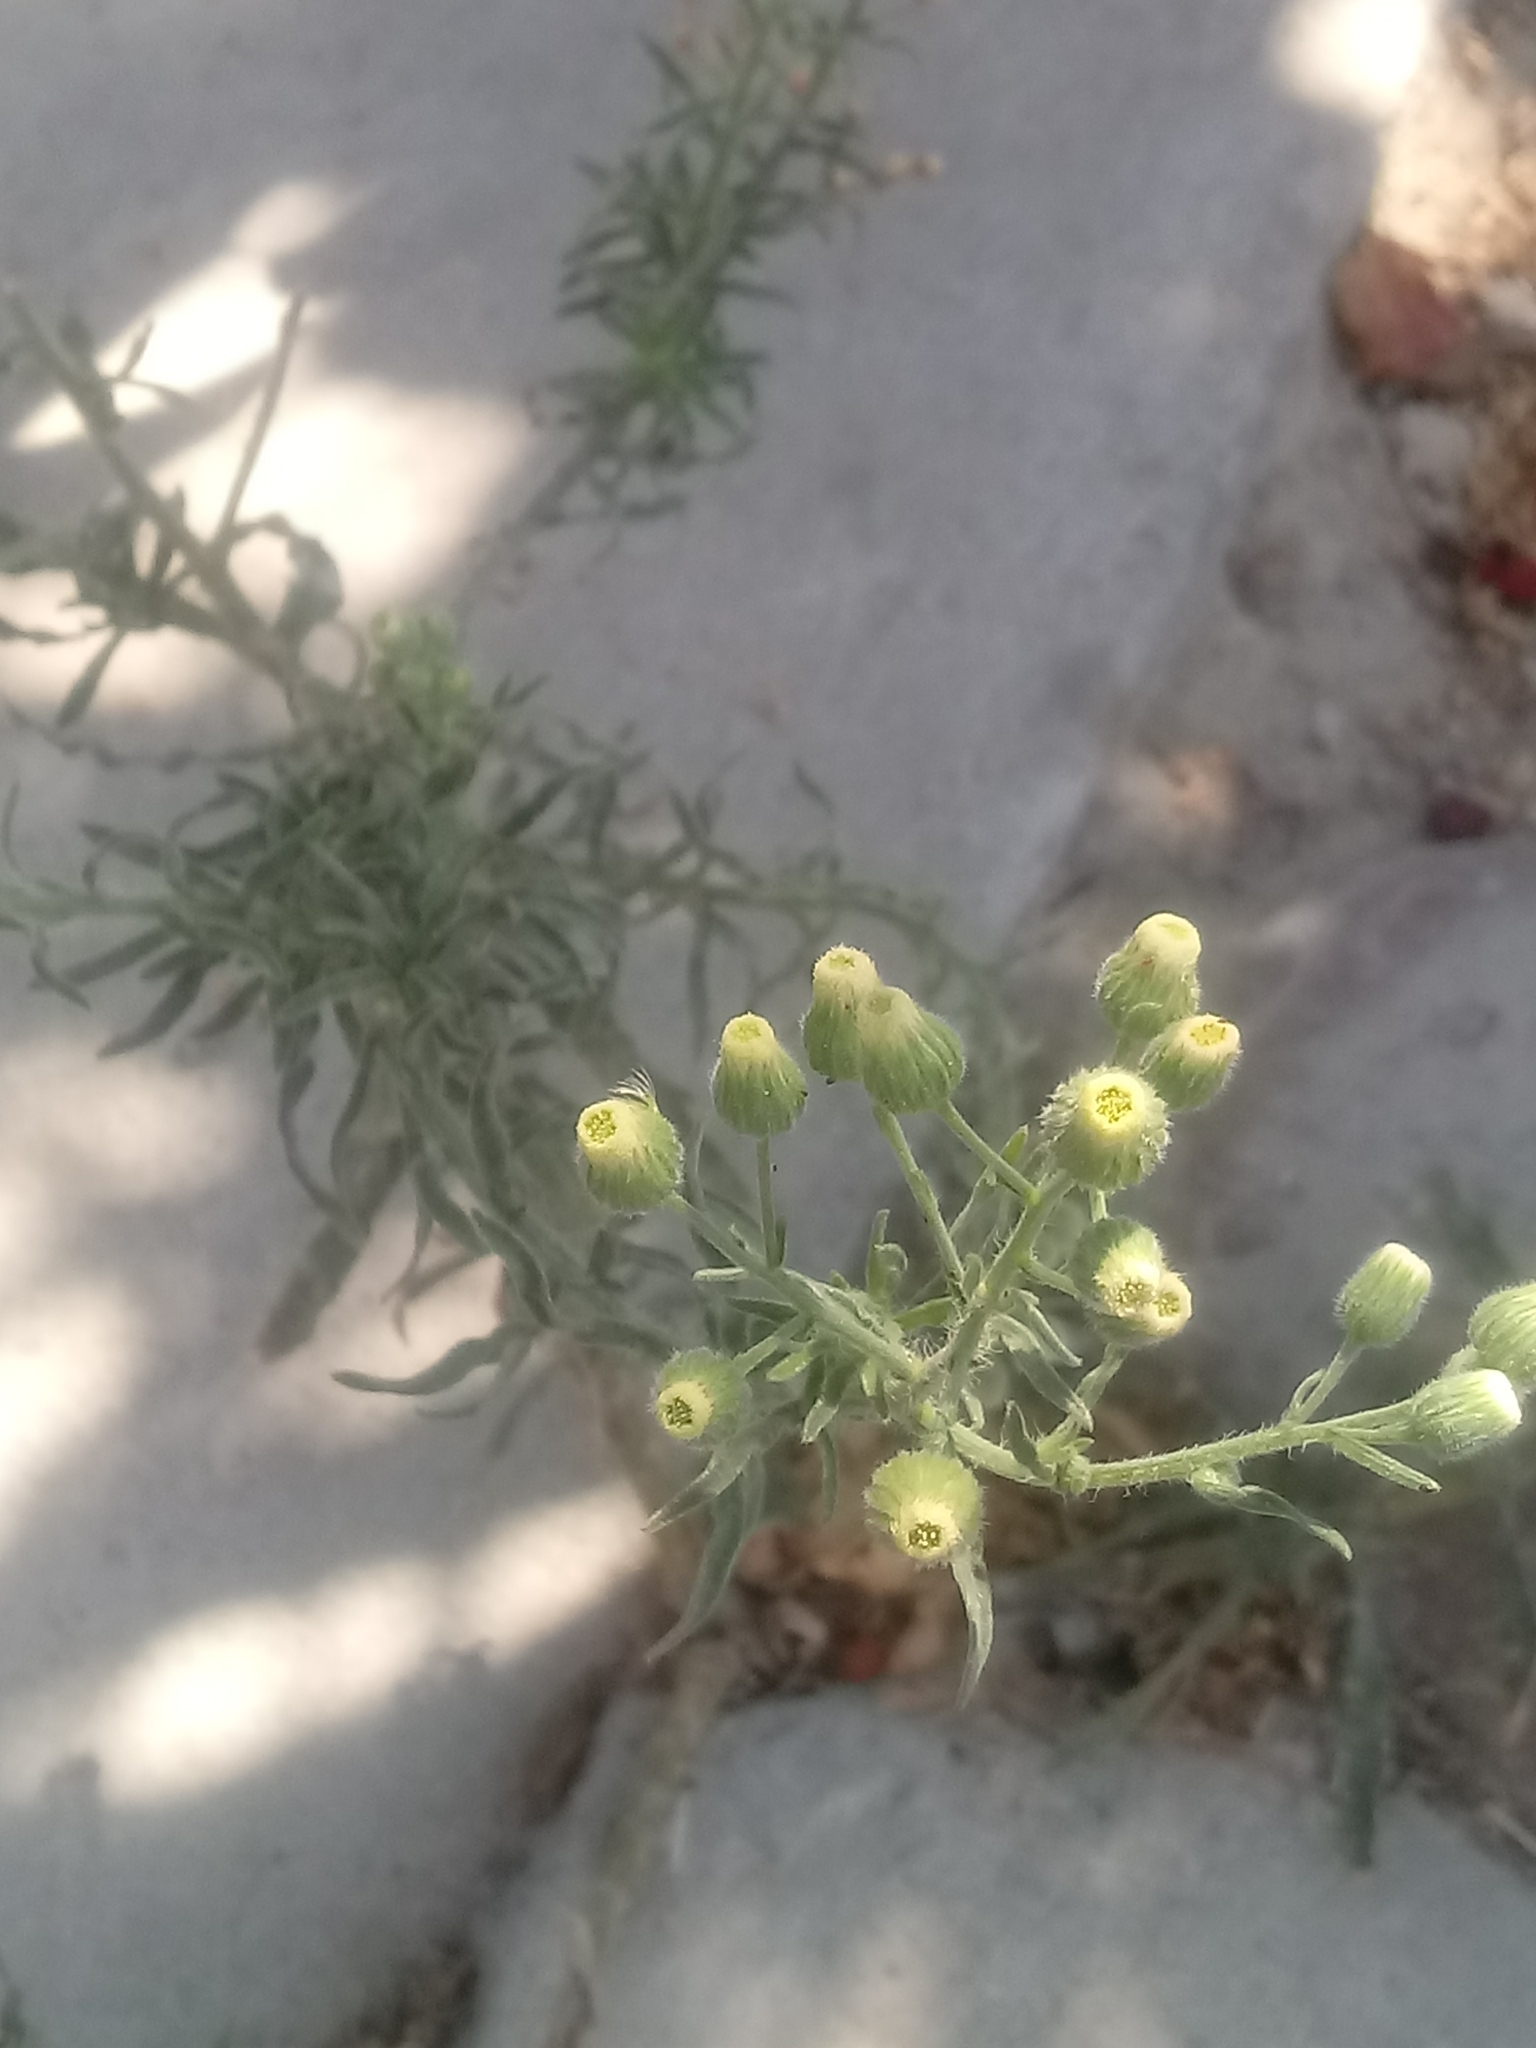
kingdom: Plantae
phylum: Tracheophyta
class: Magnoliopsida
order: Asterales
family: Asteraceae
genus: Erigeron
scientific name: Erigeron bonariensis
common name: Argentine fleabane
